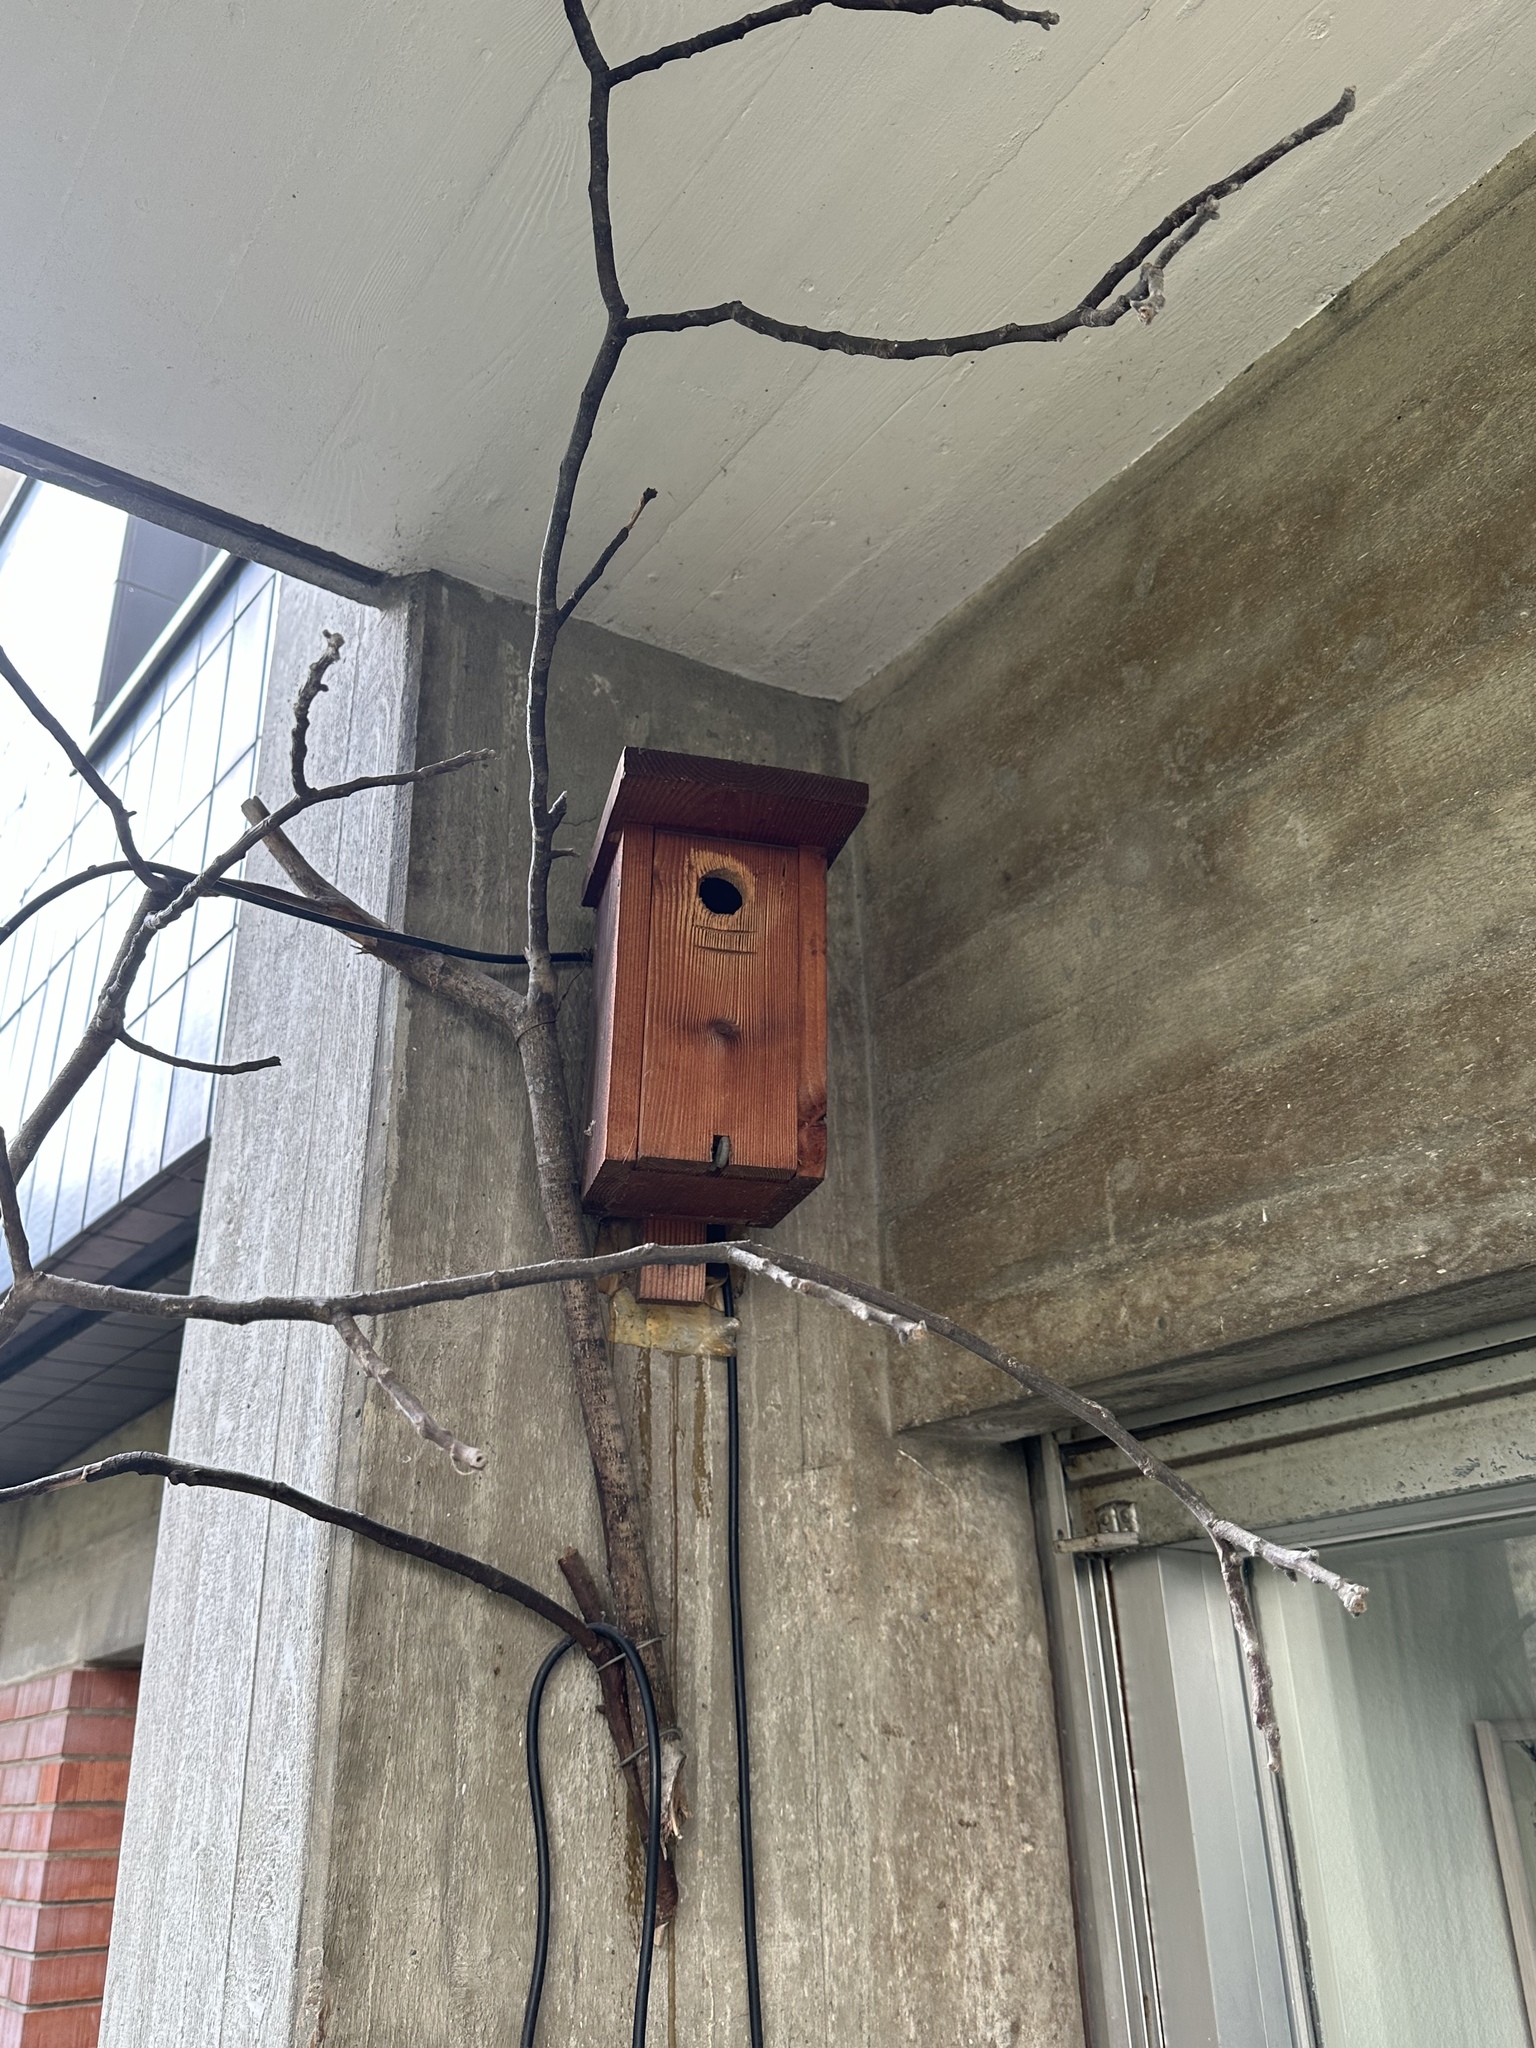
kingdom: Animalia
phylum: Chordata
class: Aves
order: Passeriformes
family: Paridae
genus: Parus
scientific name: Parus major
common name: Great tit
